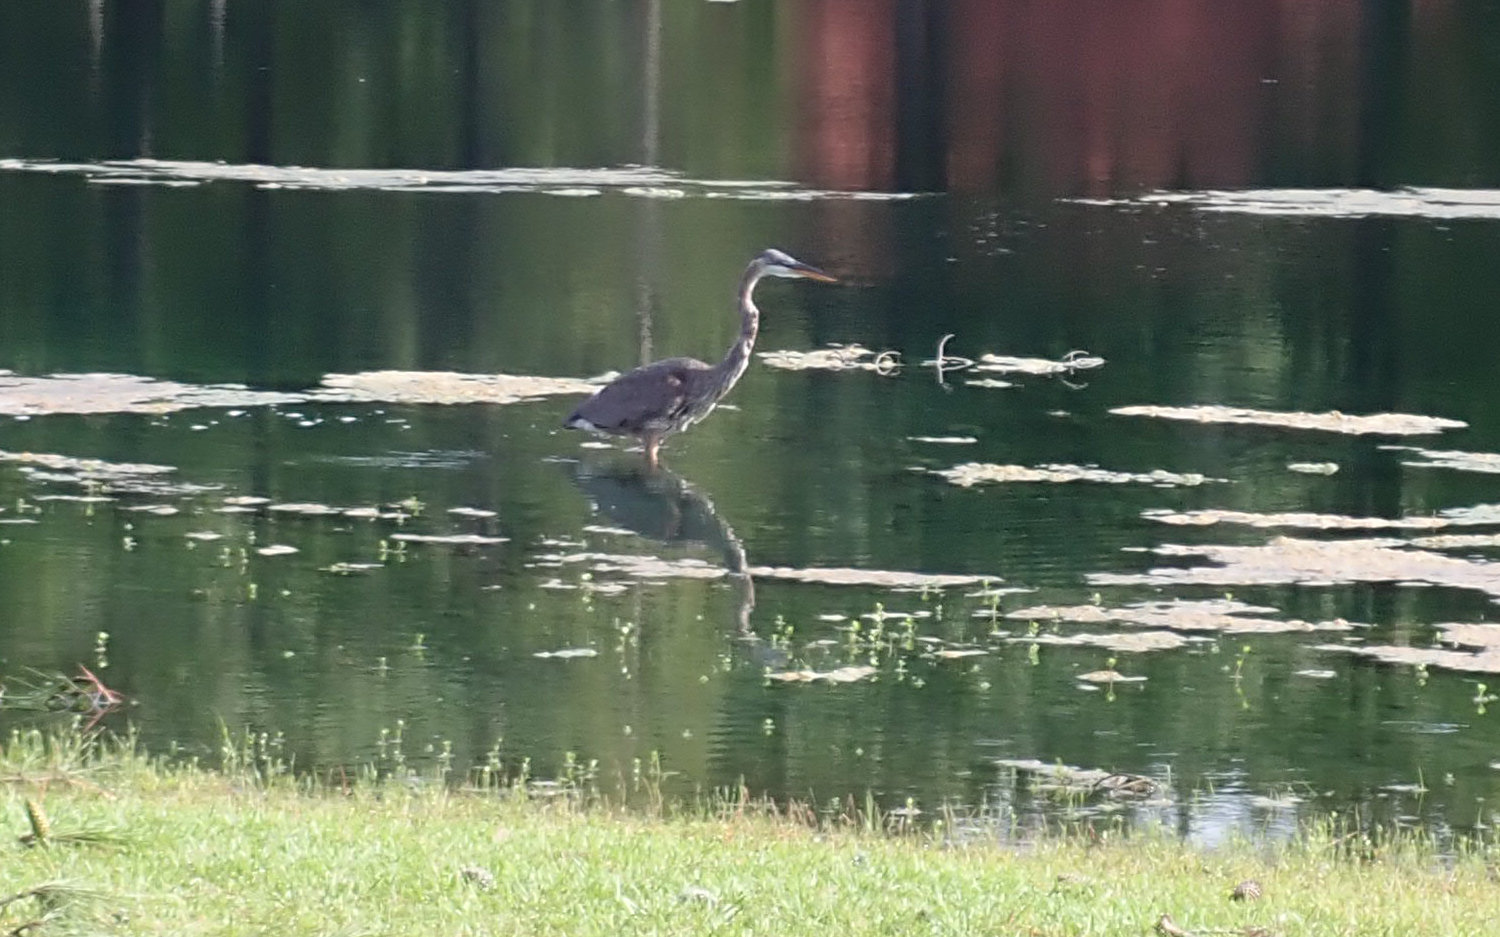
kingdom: Animalia
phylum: Chordata
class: Aves
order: Pelecaniformes
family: Ardeidae
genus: Ardea
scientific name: Ardea herodias
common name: Great blue heron
